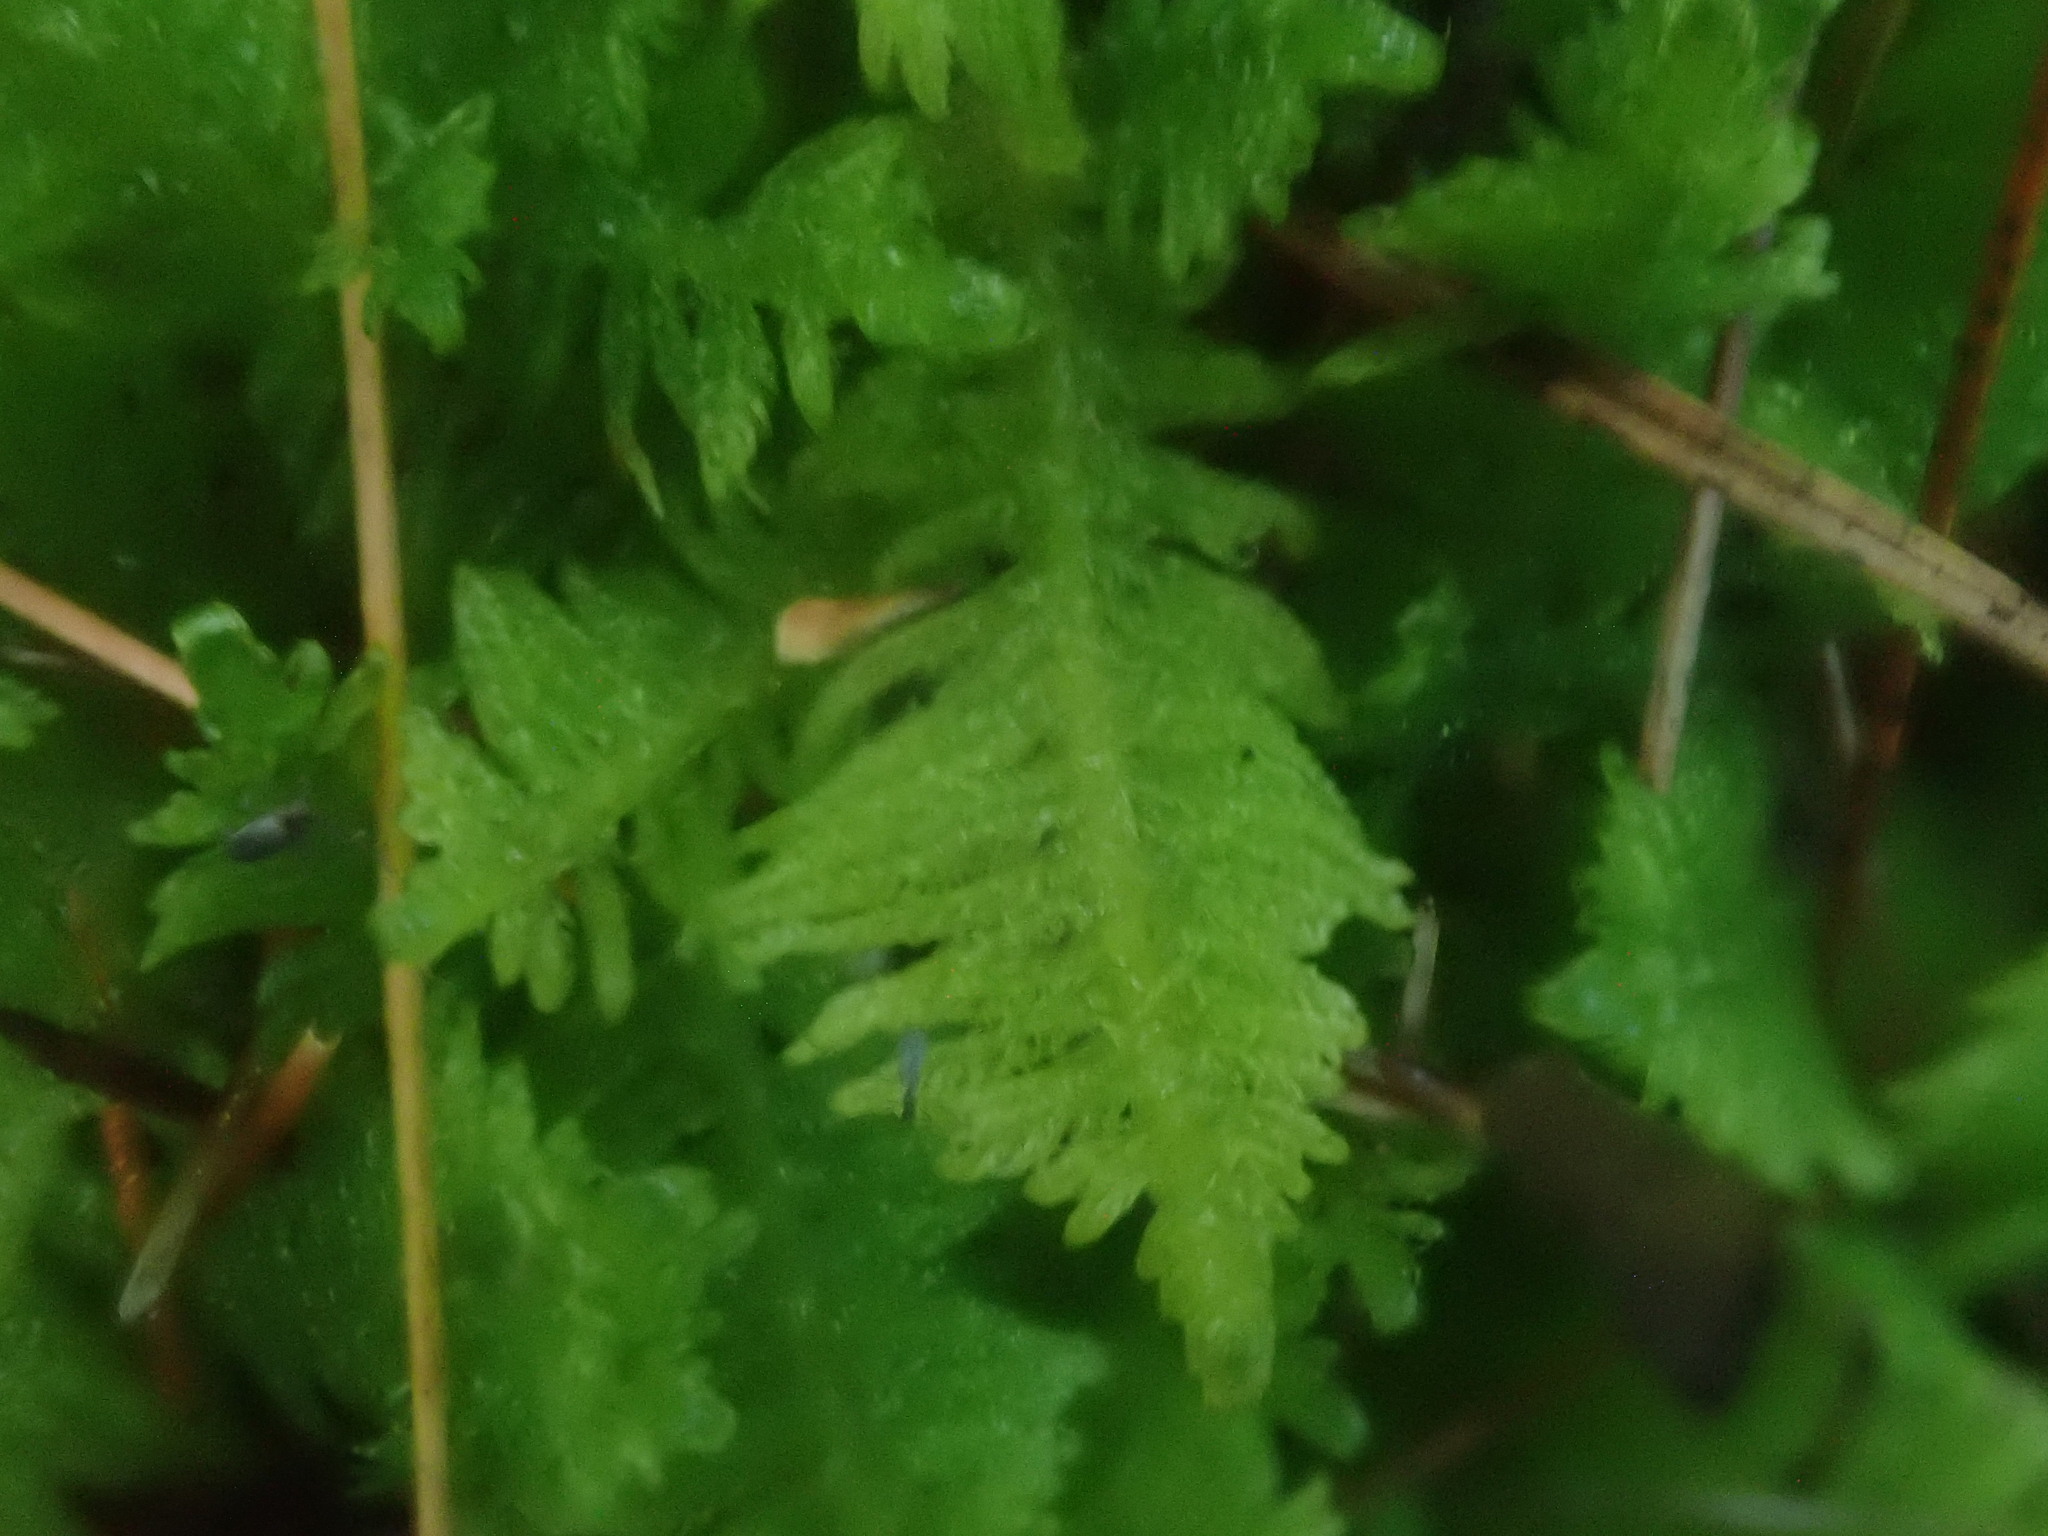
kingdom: Plantae
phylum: Bryophyta
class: Bryopsida
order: Hypnales
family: Pylaisiaceae
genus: Ptilium
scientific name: Ptilium crista-castrensis
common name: Knight's plume moss
